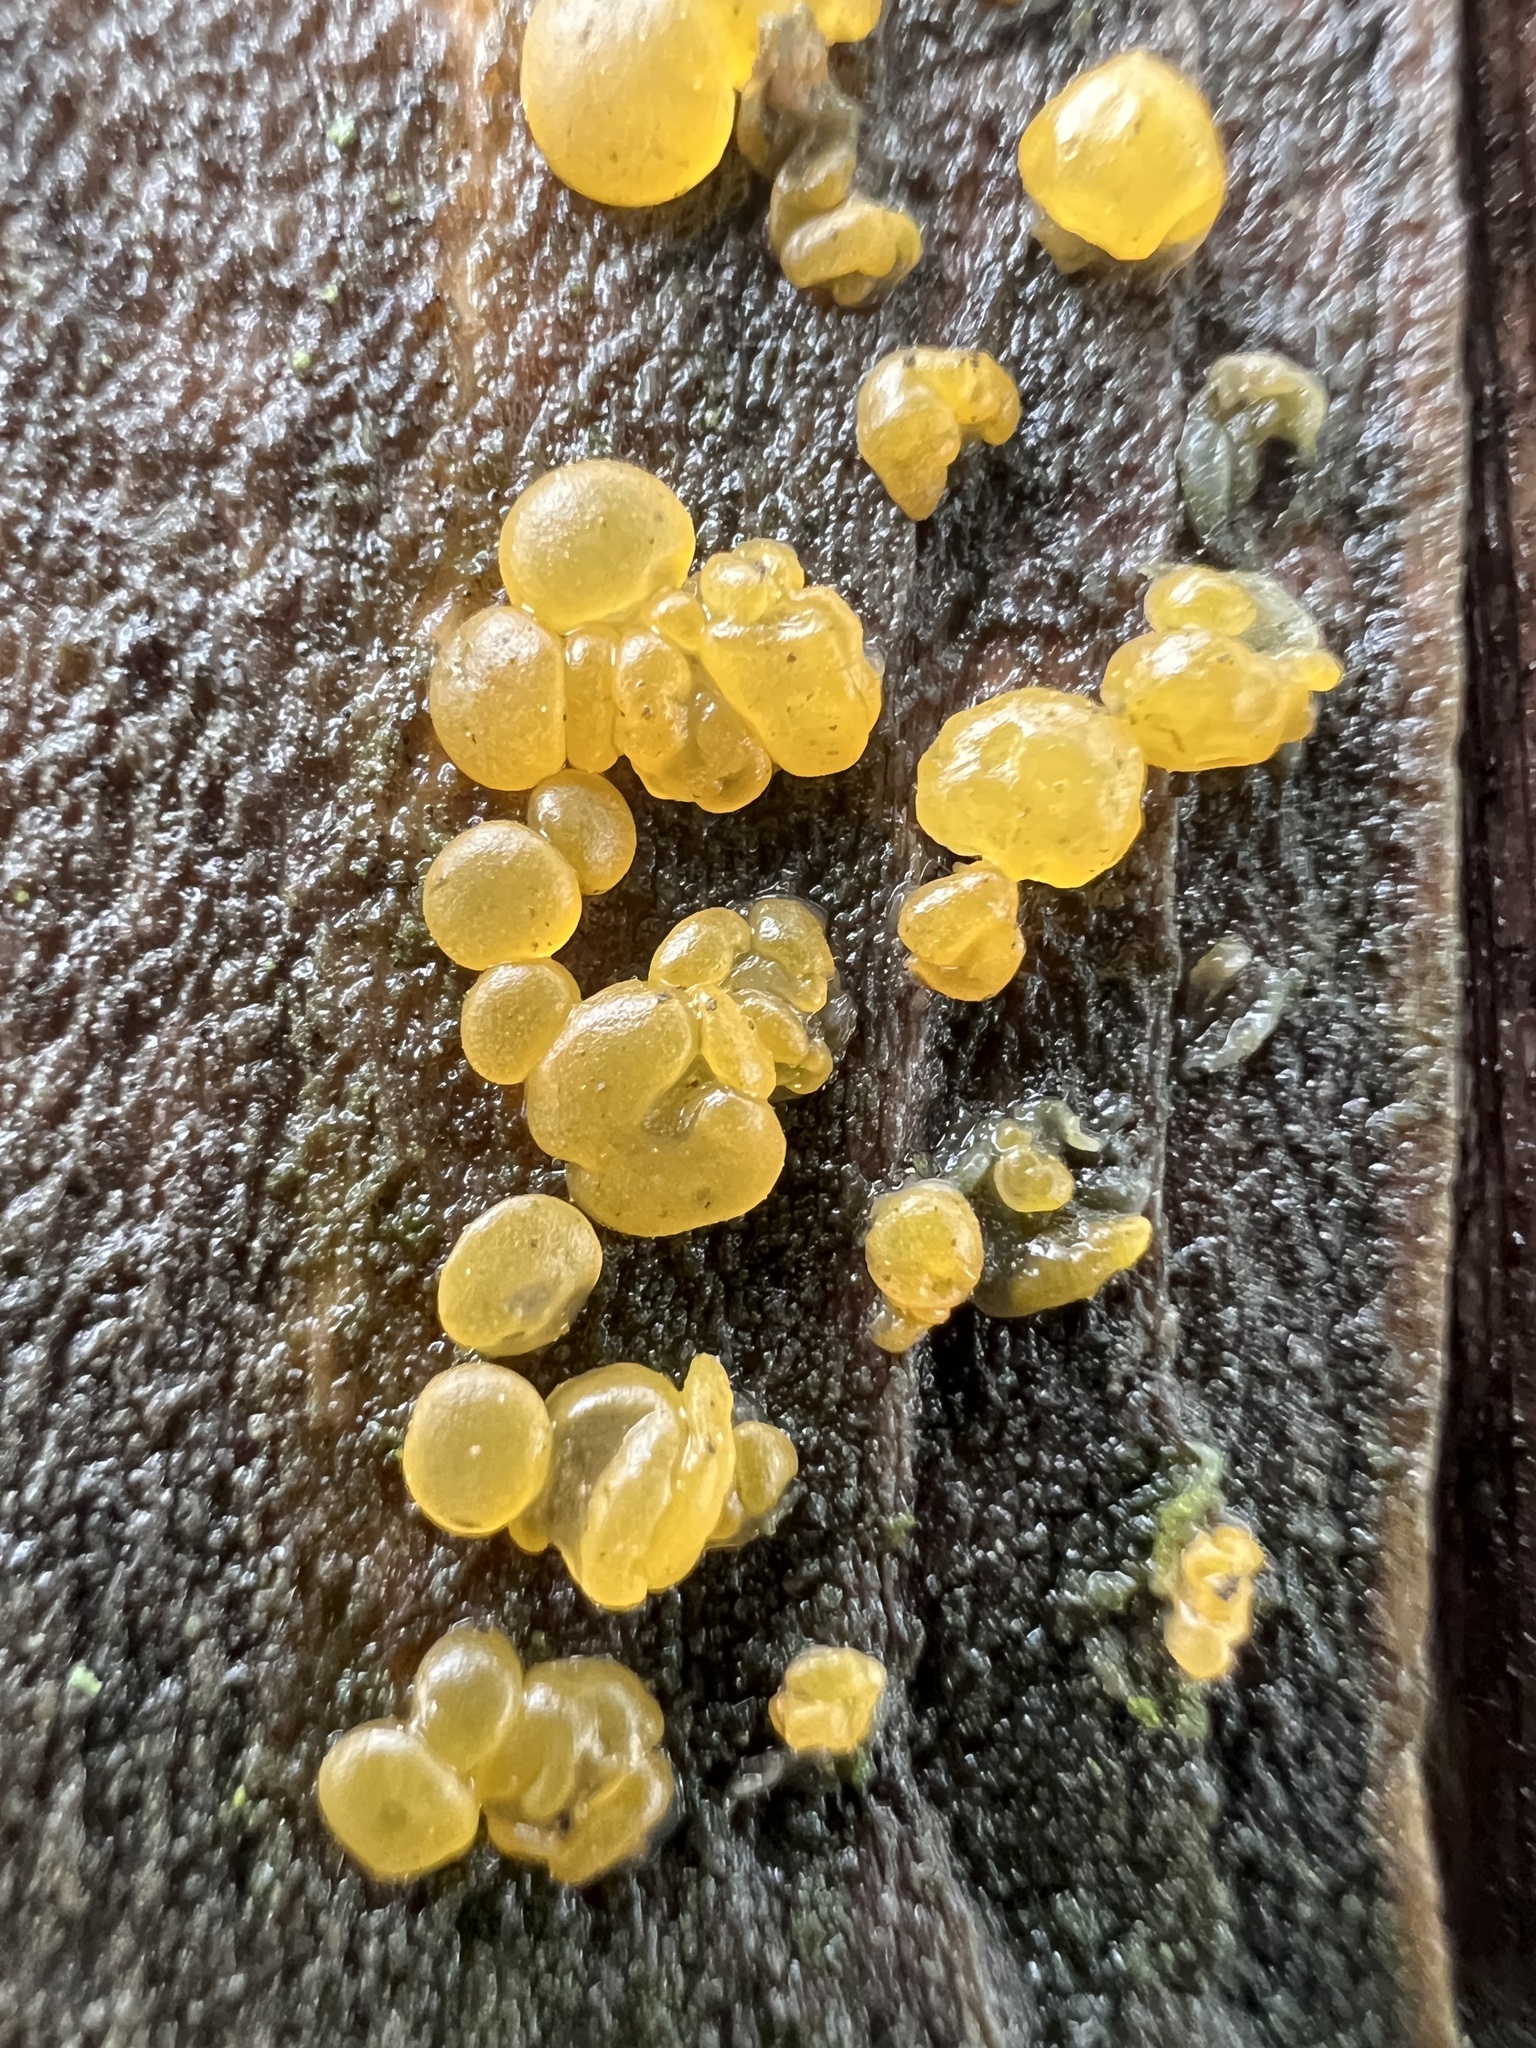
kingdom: Fungi
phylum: Basidiomycota
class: Dacrymycetes
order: Dacrymycetales
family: Dacrymycetaceae
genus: Dacrymyces
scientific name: Dacrymyces stillatus
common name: Common jelly spot
